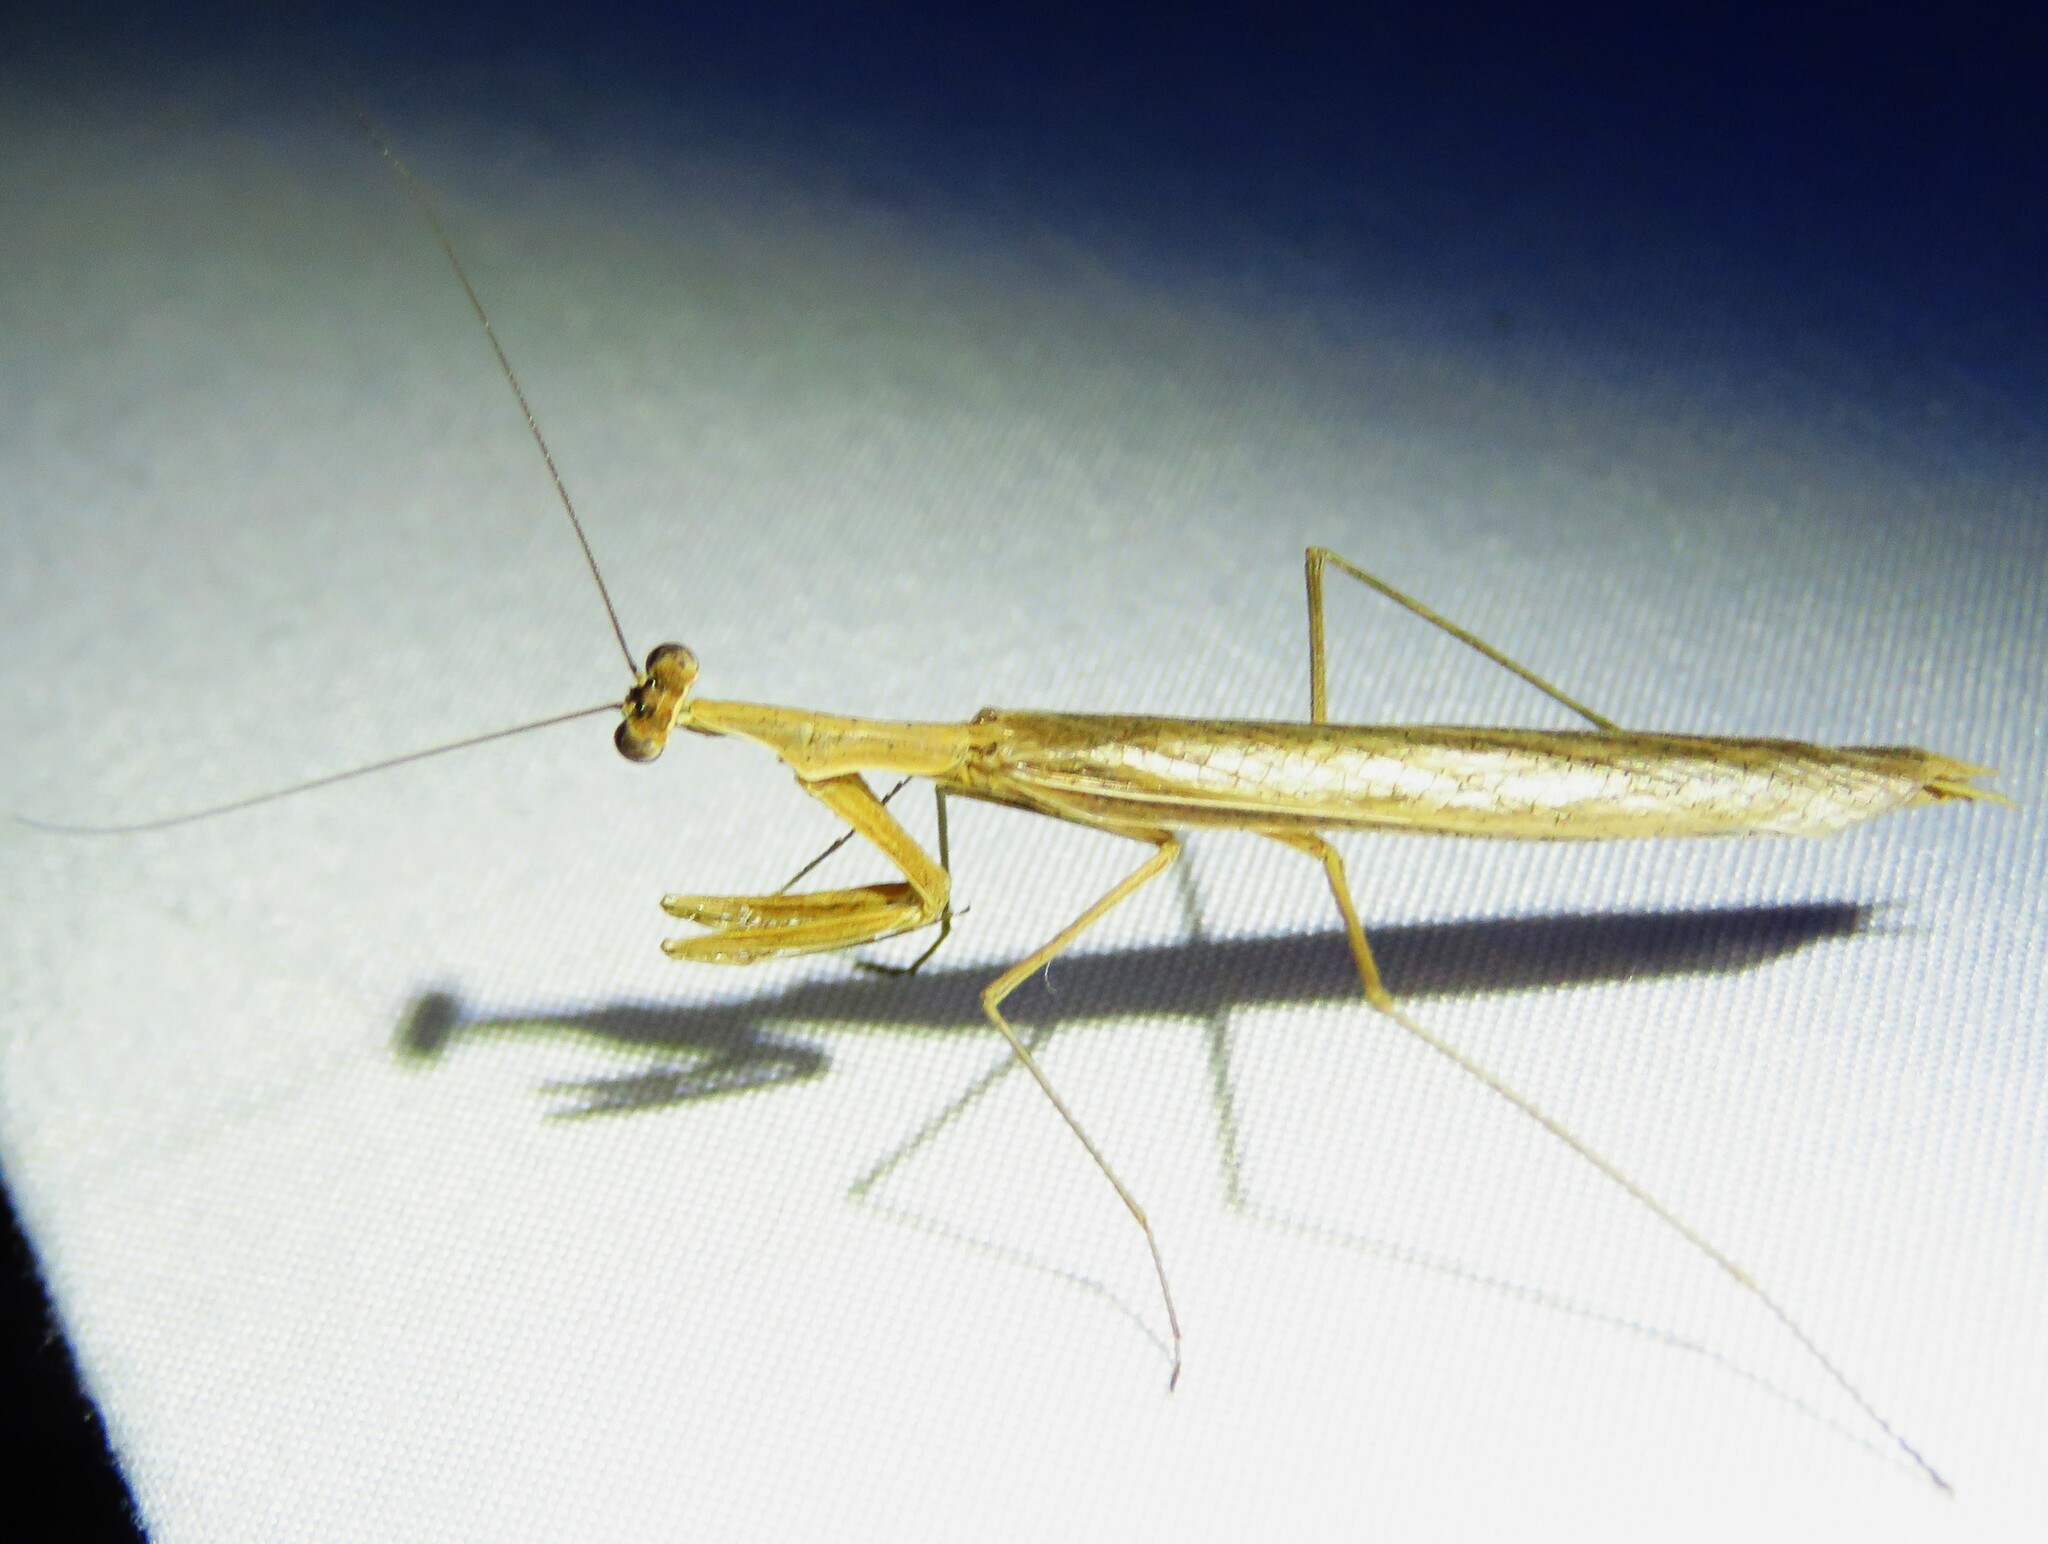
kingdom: Animalia
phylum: Arthropoda
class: Insecta
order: Mantodea
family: Thespidae
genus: Thespis
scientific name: Thespis parva
